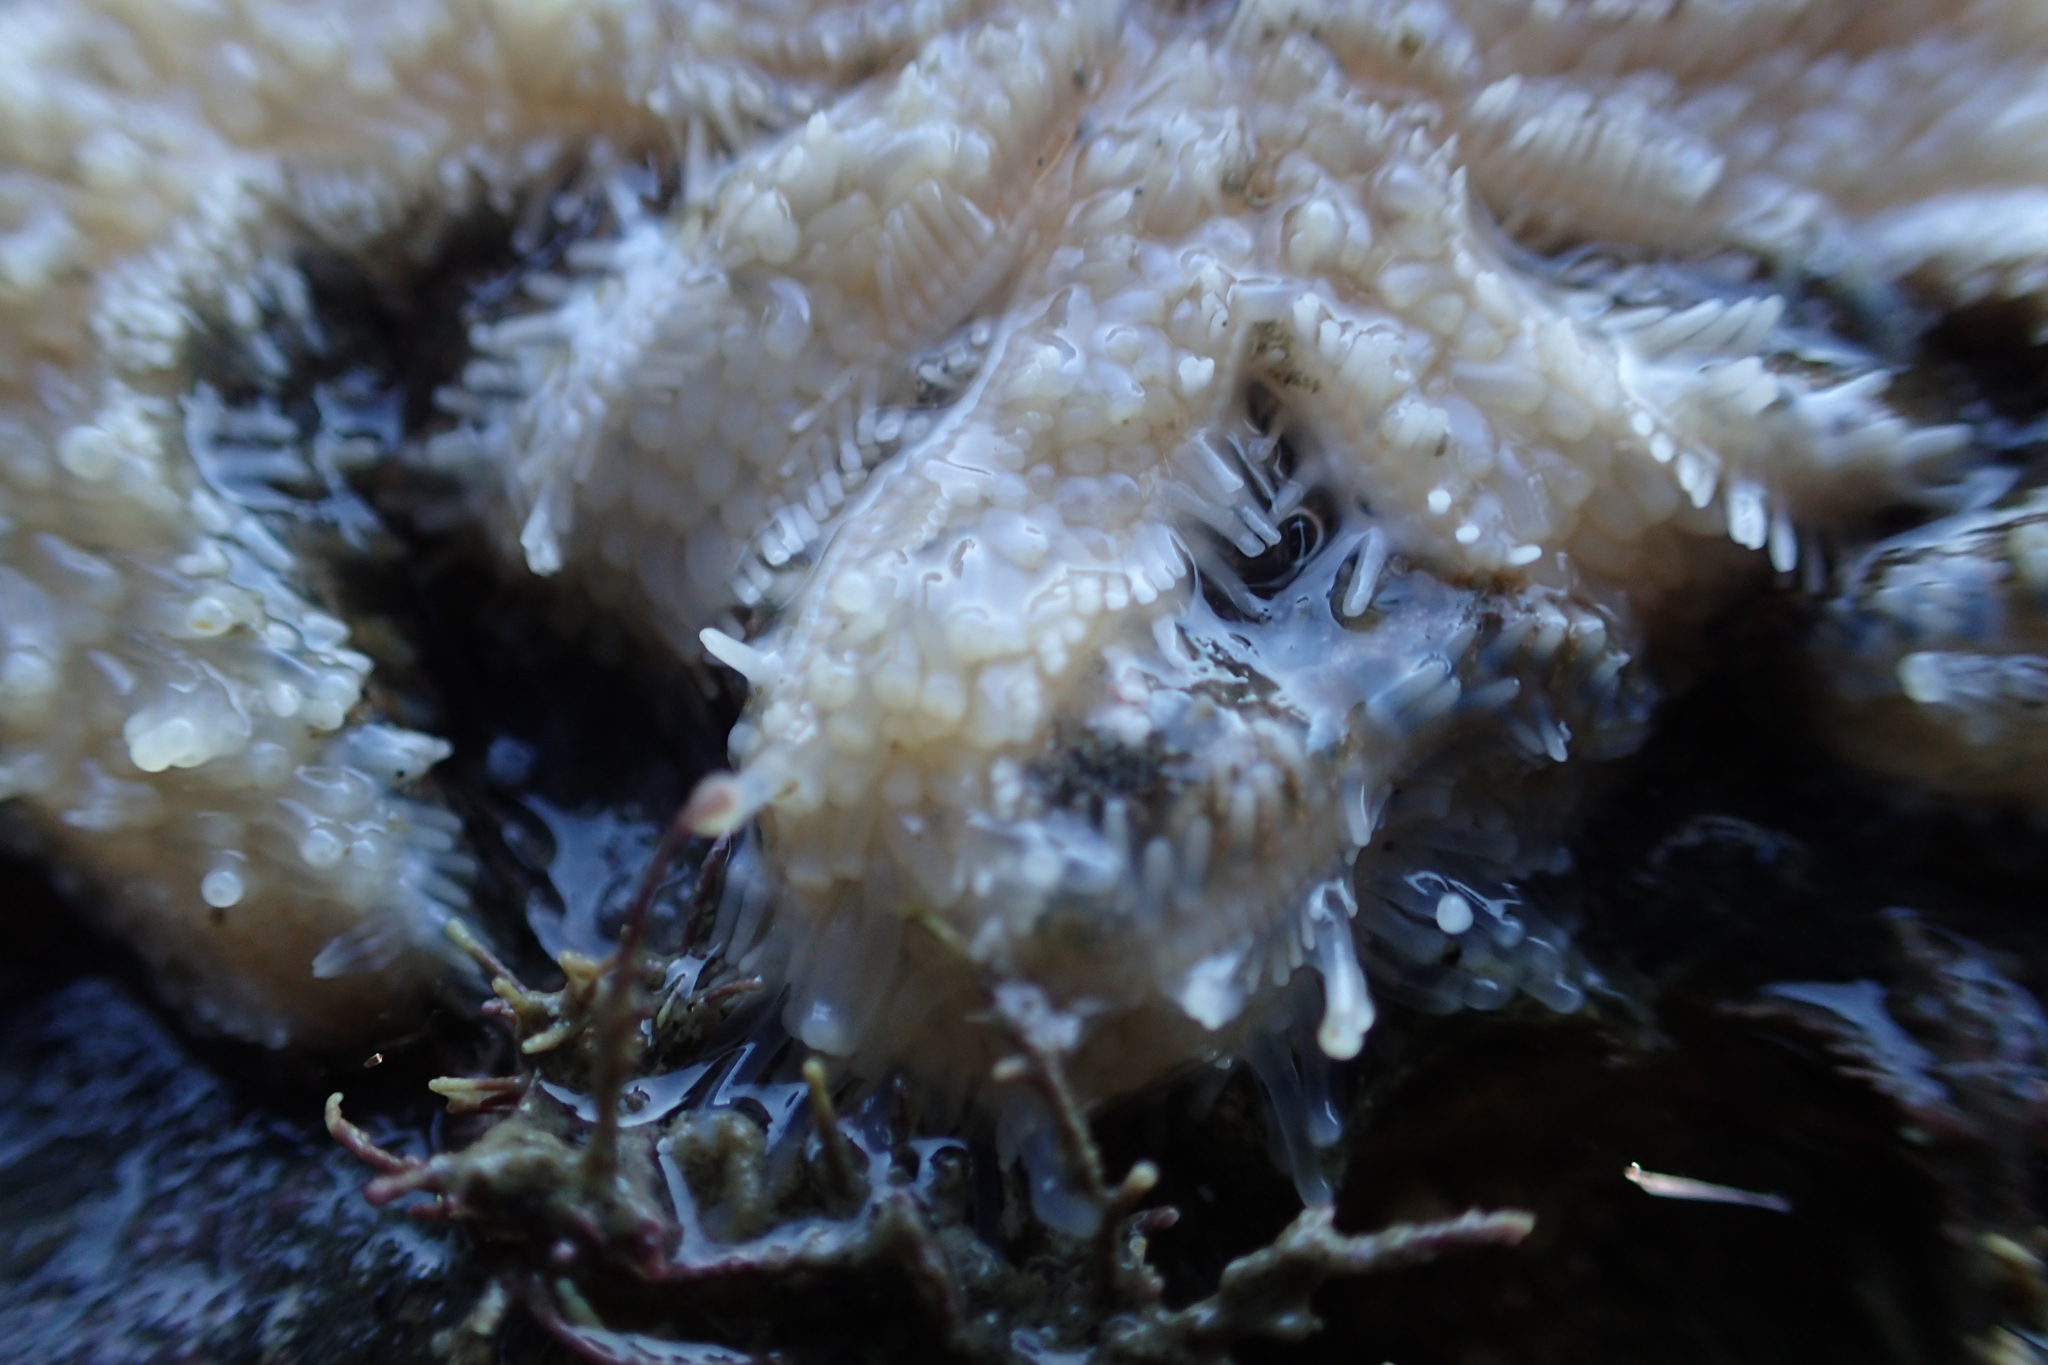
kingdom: Animalia
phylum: Echinodermata
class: Asteroidea
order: Forcipulatida
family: Asteriidae
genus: Coscinasterias
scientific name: Coscinasterias muricata
